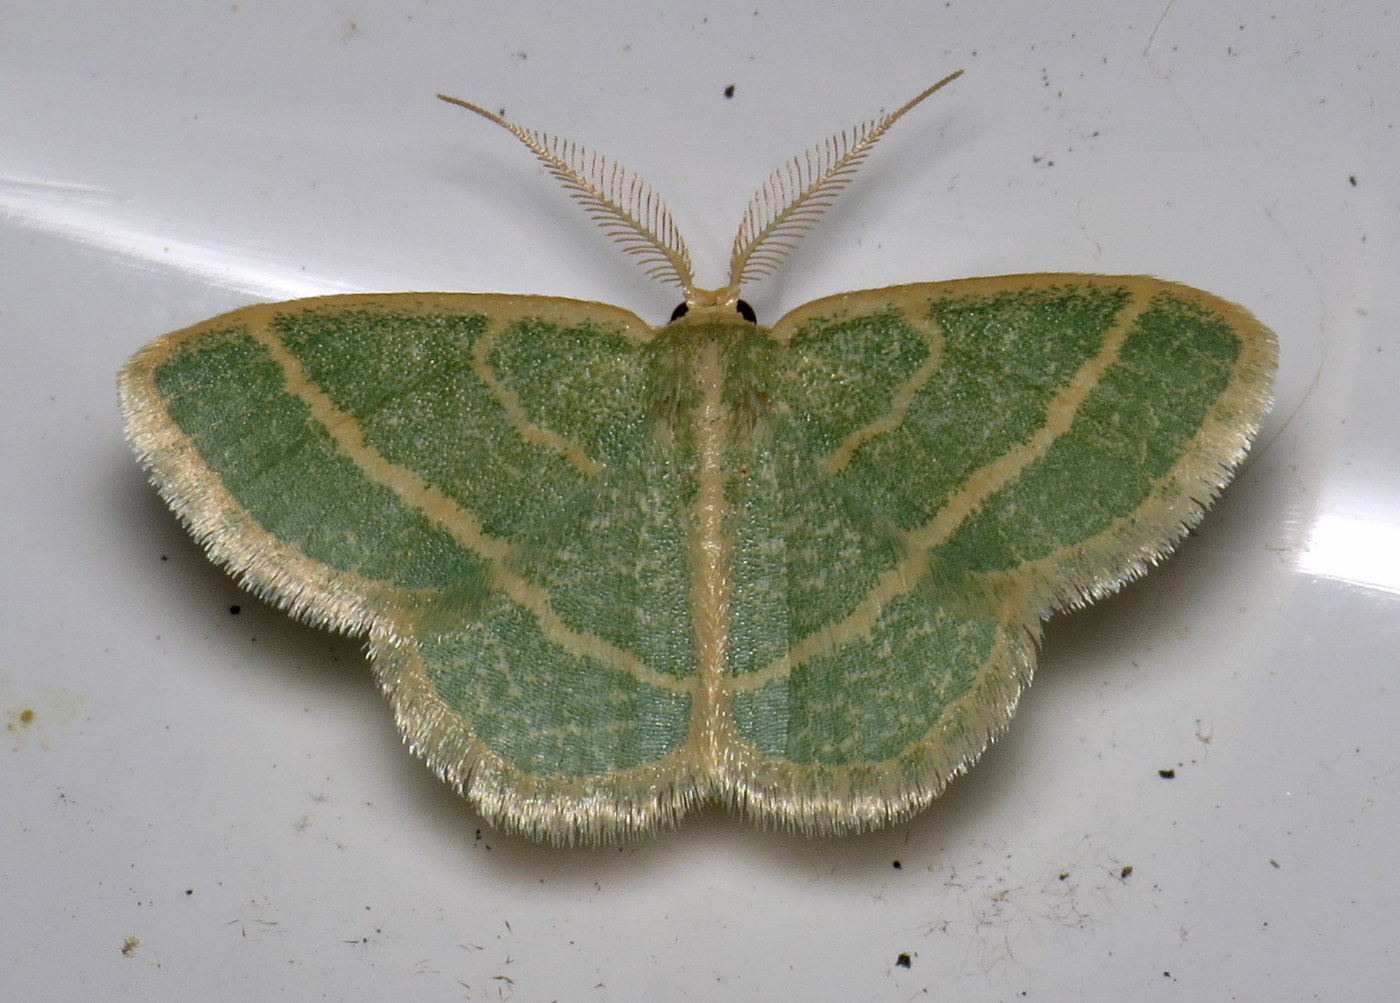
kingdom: Animalia
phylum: Arthropoda
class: Insecta
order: Lepidoptera
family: Geometridae
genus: Chlorochlamys
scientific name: Chlorochlamys chloroleucaria
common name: Blackberry looper
